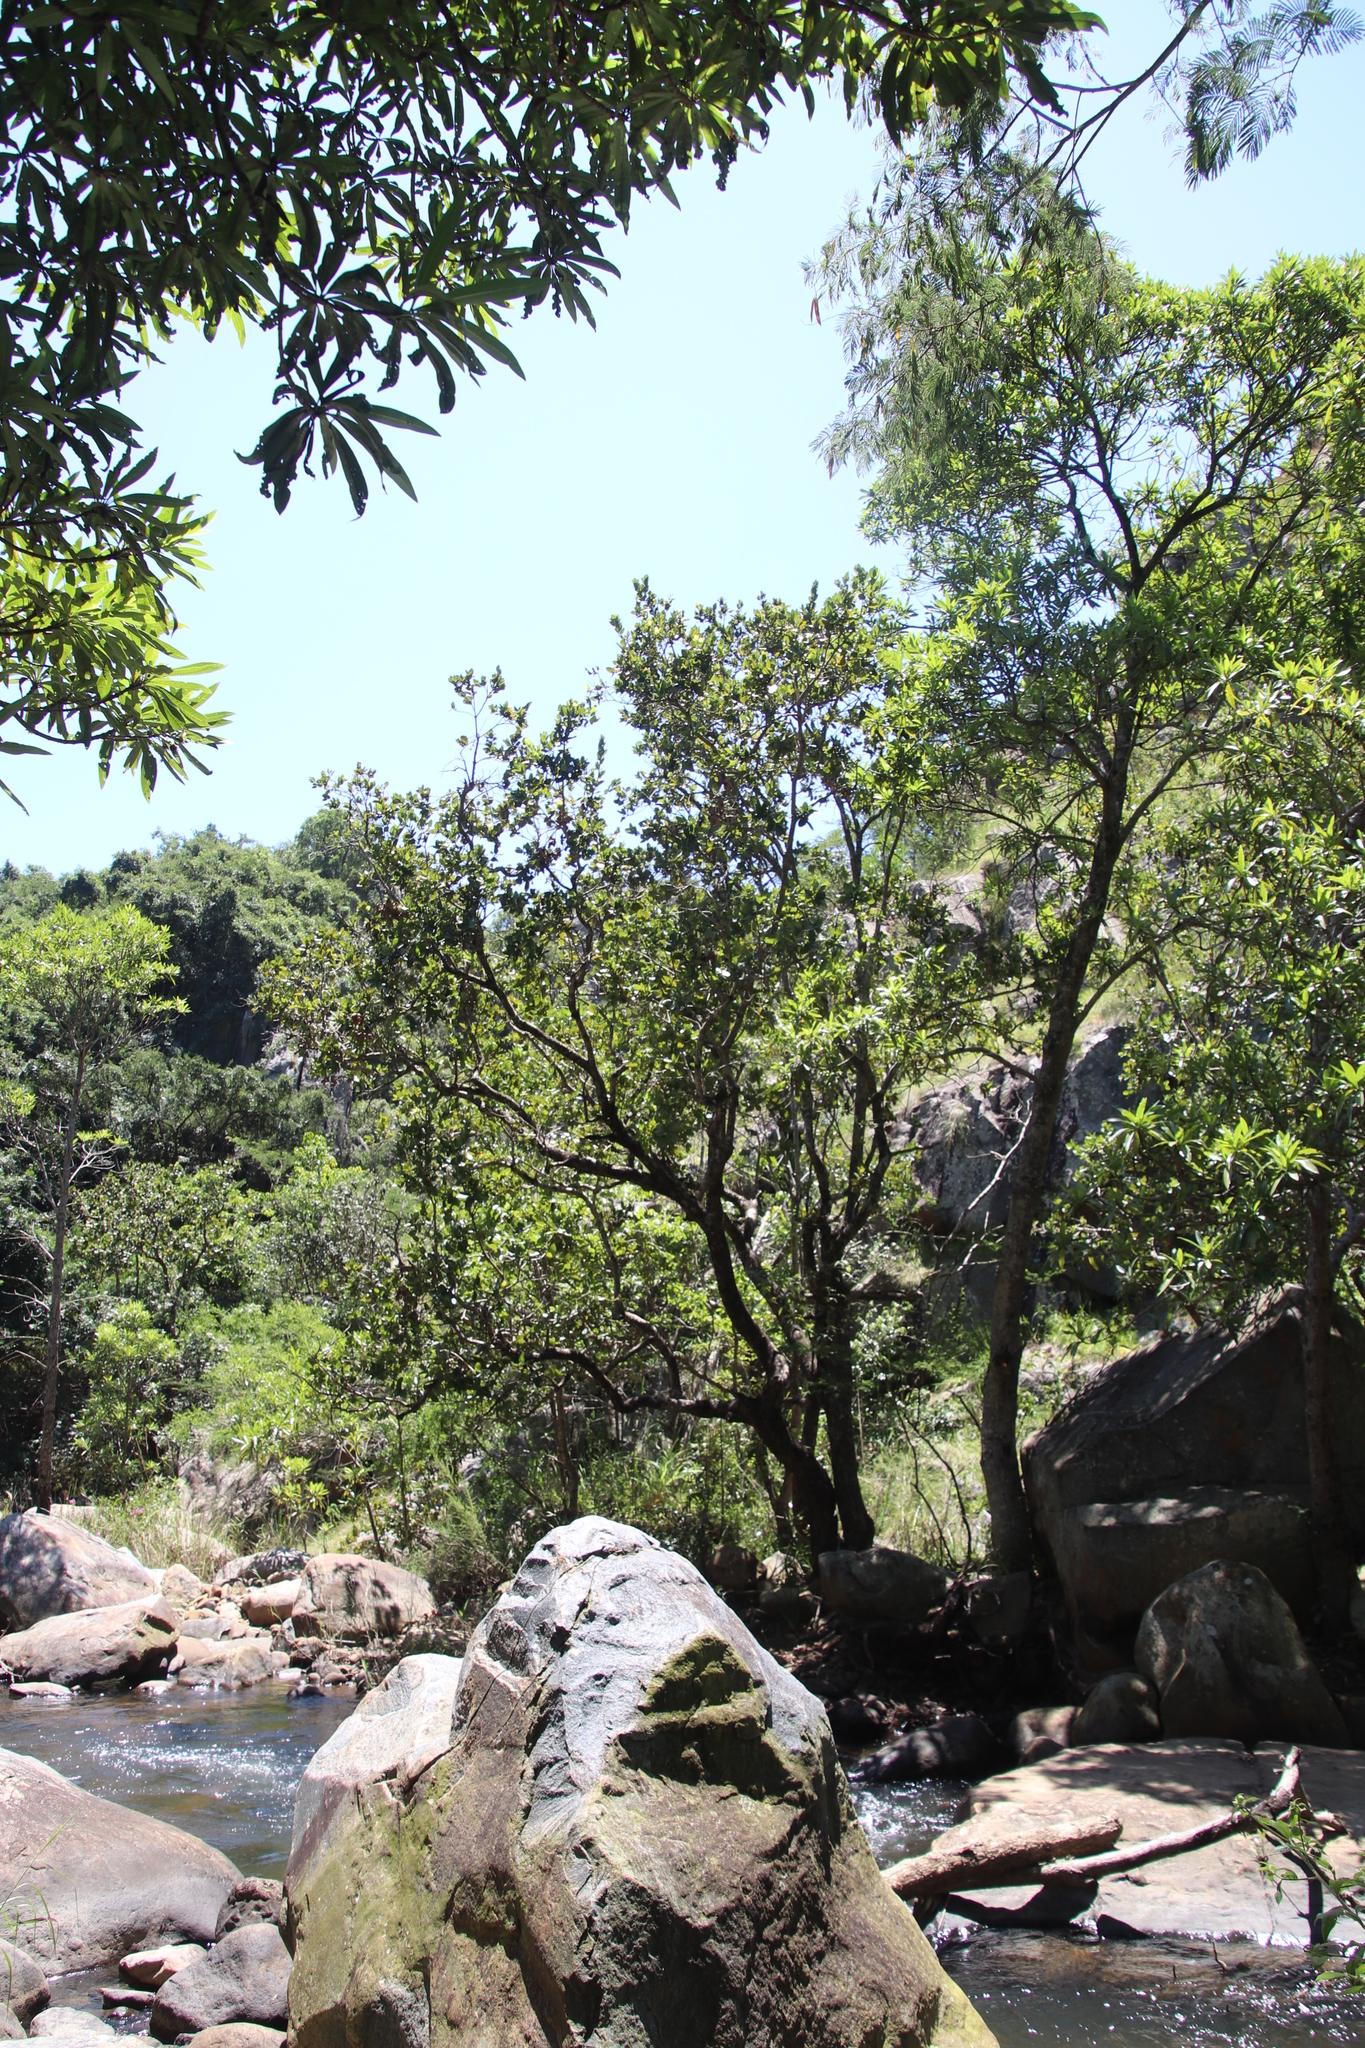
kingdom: Plantae
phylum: Tracheophyta
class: Magnoliopsida
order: Myrtales
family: Myrtaceae
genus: Syzygium
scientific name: Syzygium cordatum
